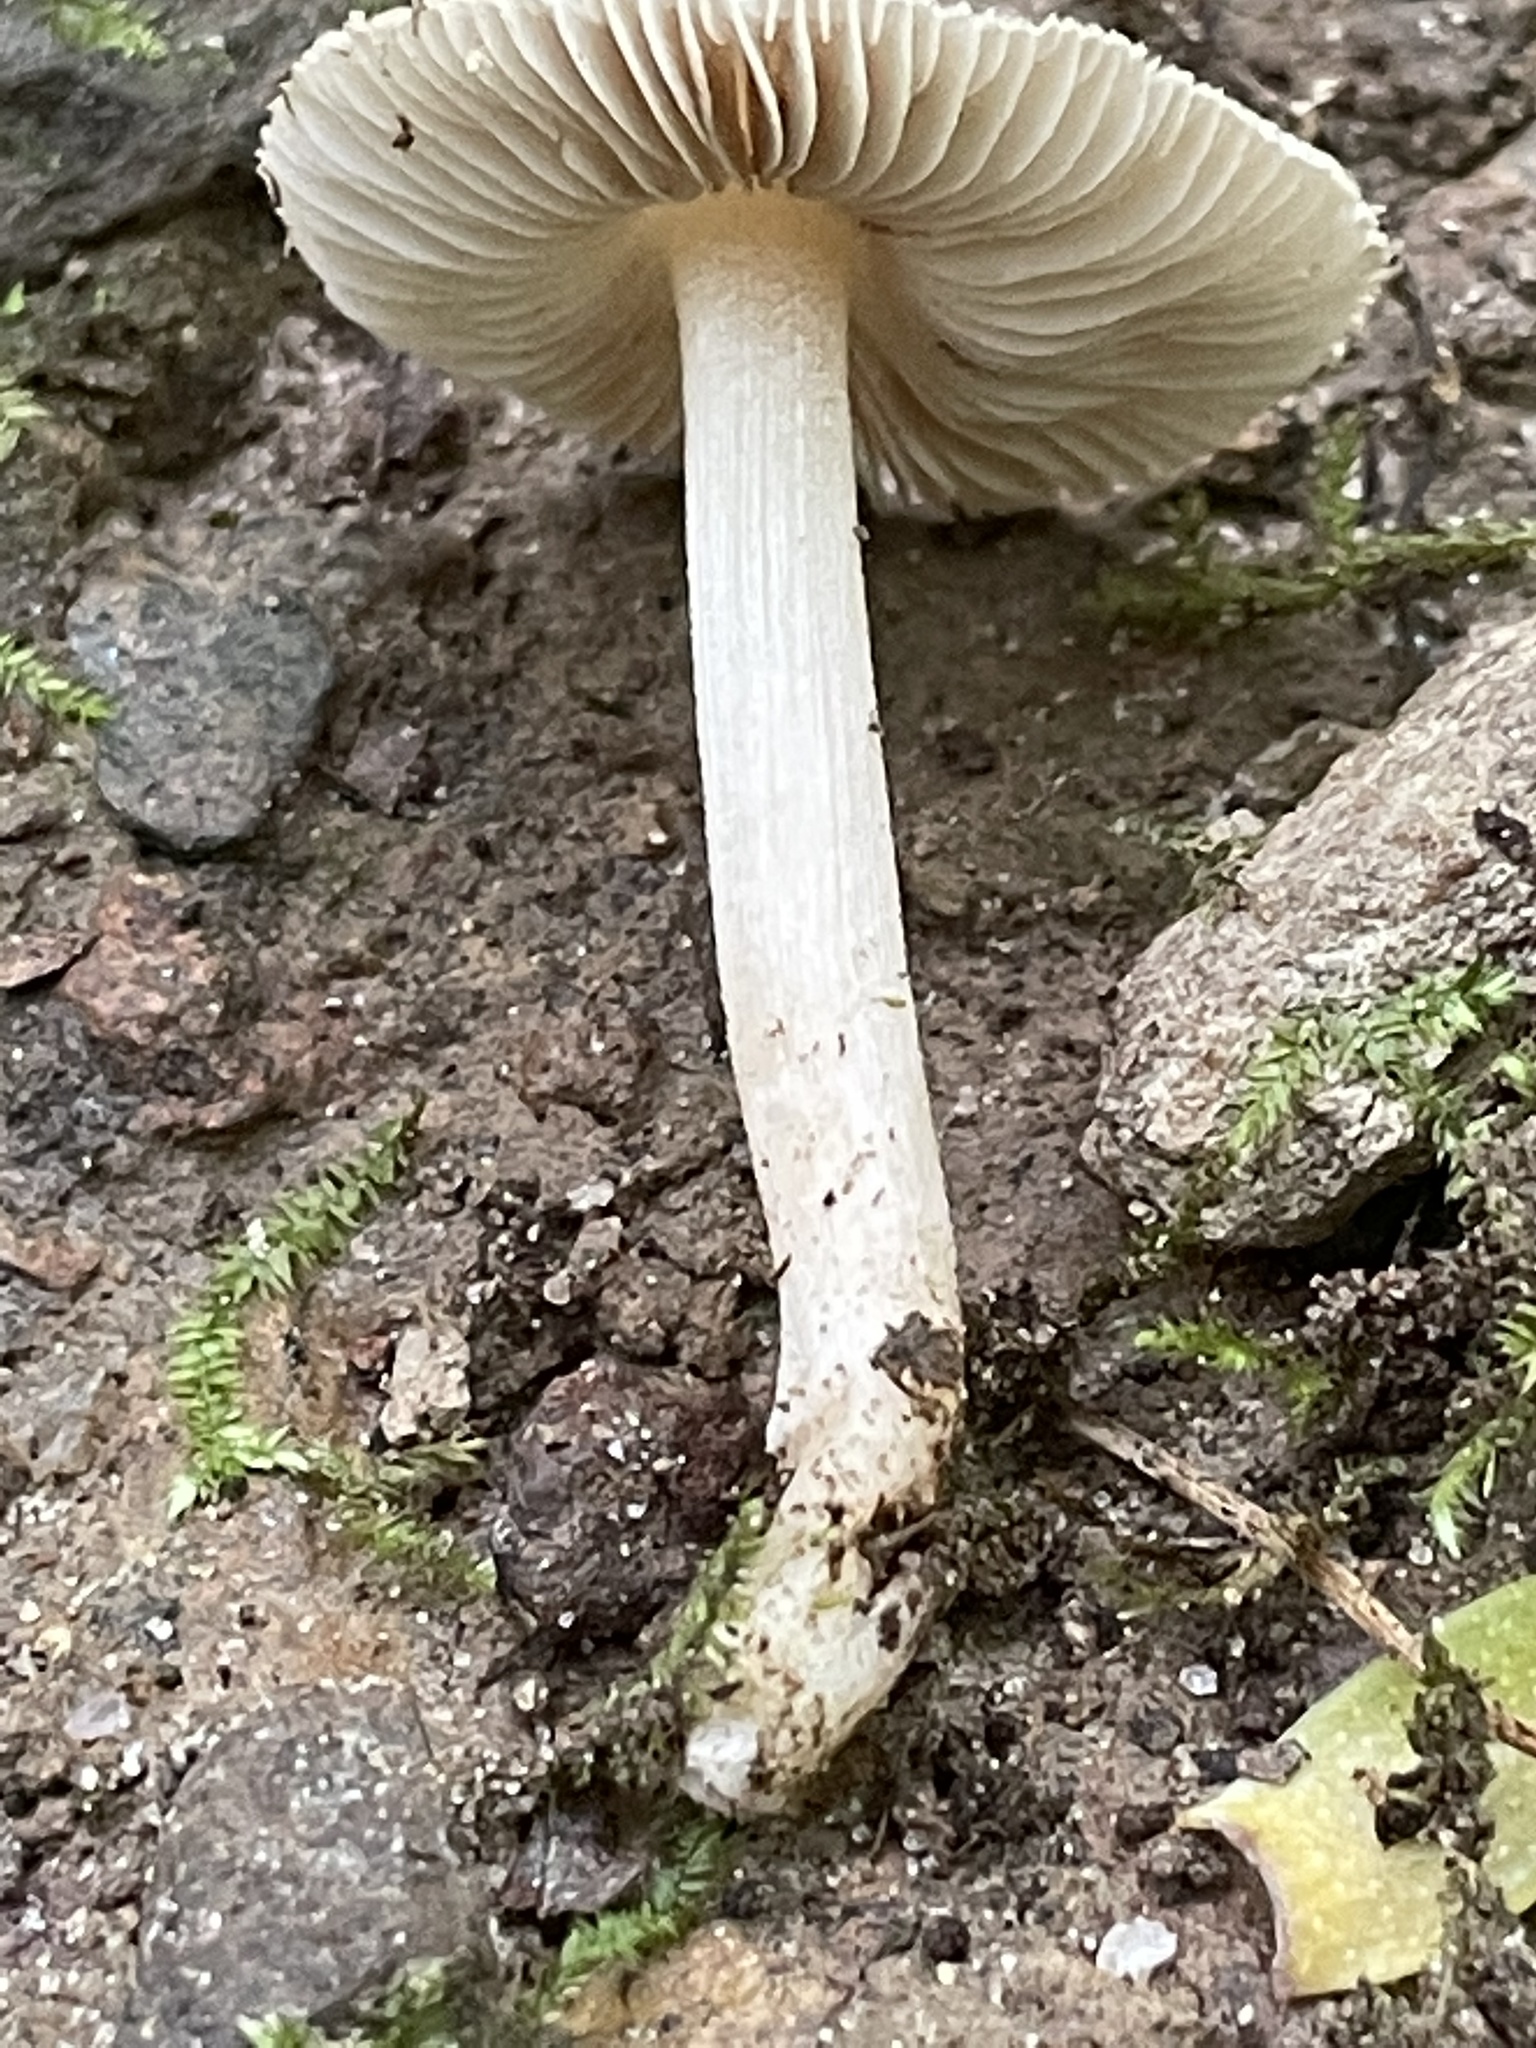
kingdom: Fungi
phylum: Basidiomycota
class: Agaricomycetes
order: Agaricales
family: Inocybaceae
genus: Inocybe
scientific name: Inocybe albodisca
